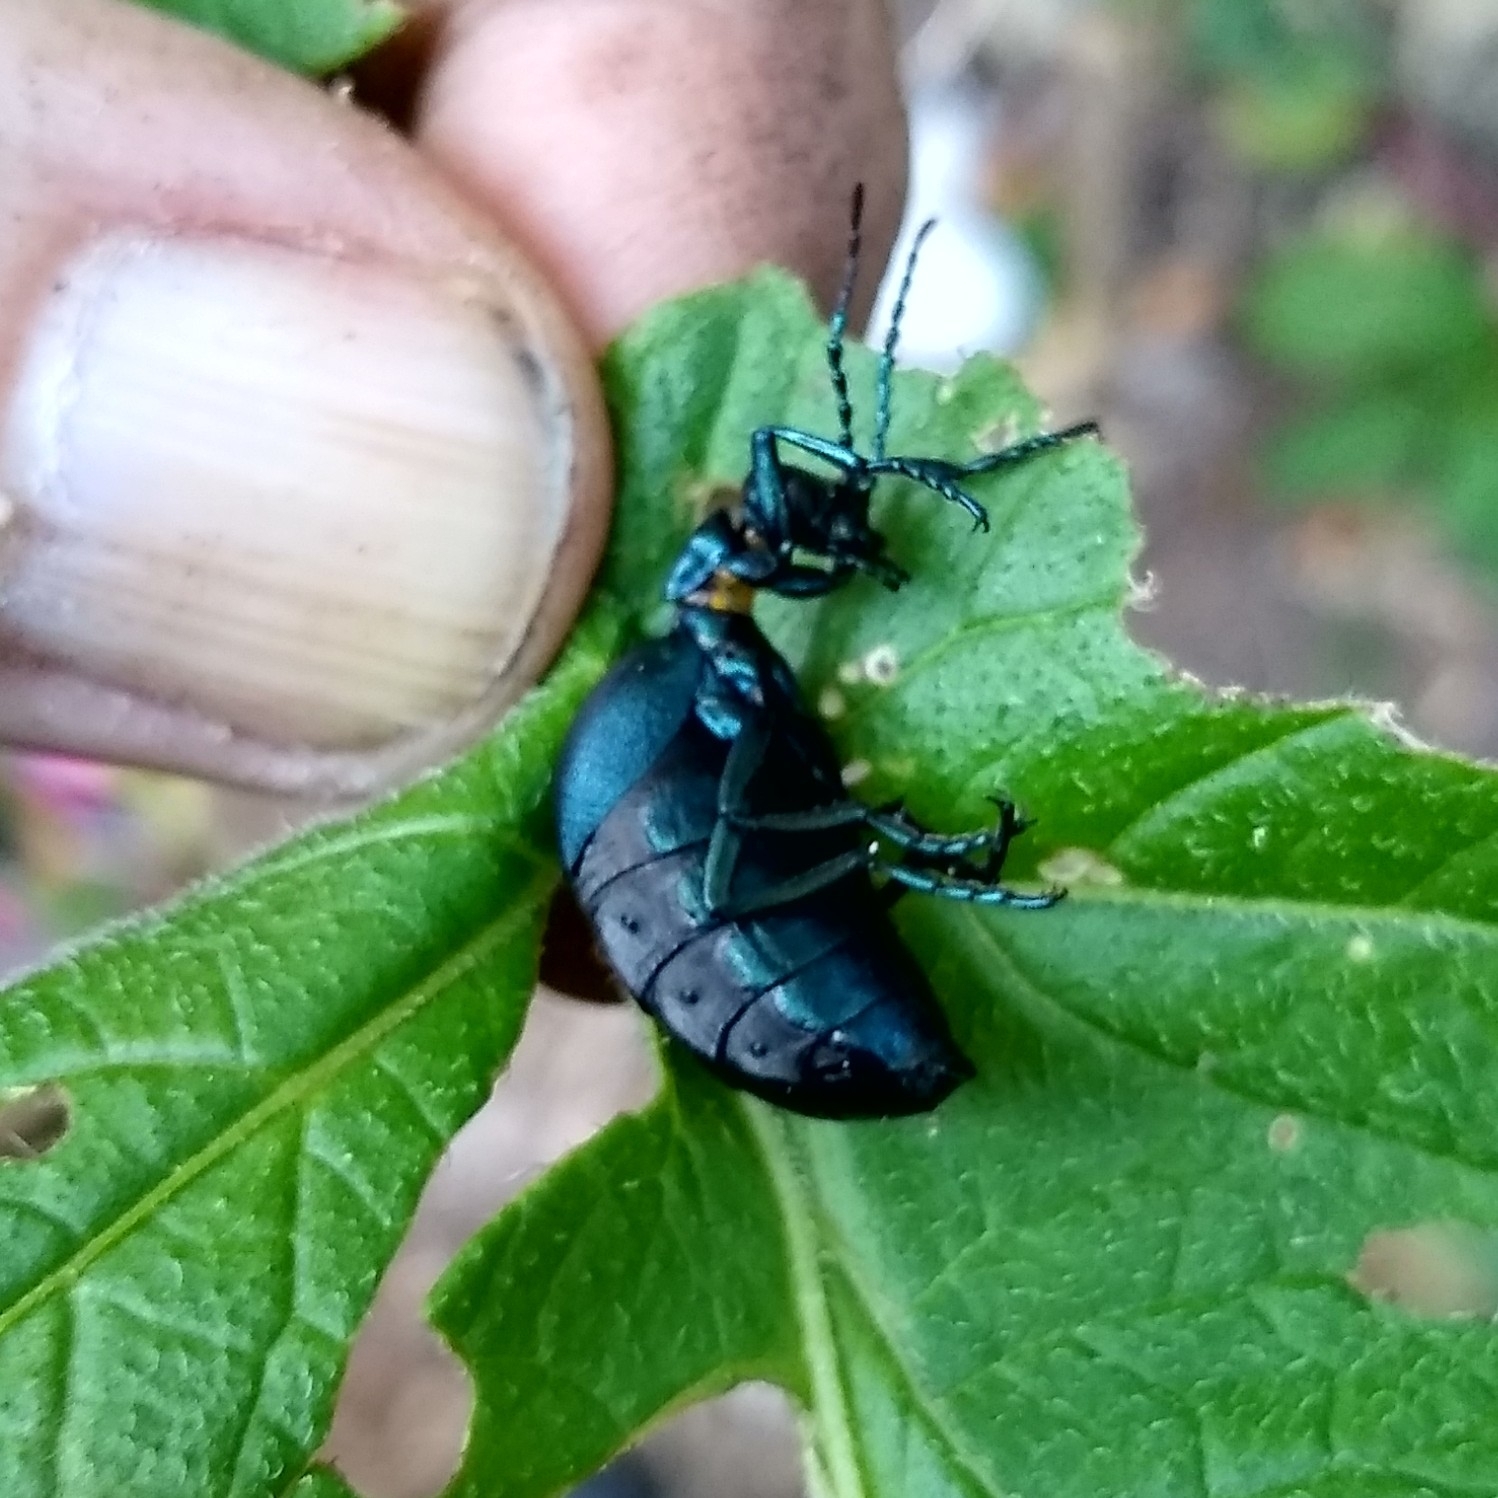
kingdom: Animalia
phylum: Arthropoda
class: Insecta
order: Coleoptera
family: Meloidae
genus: Meloe
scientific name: Meloe impressus
